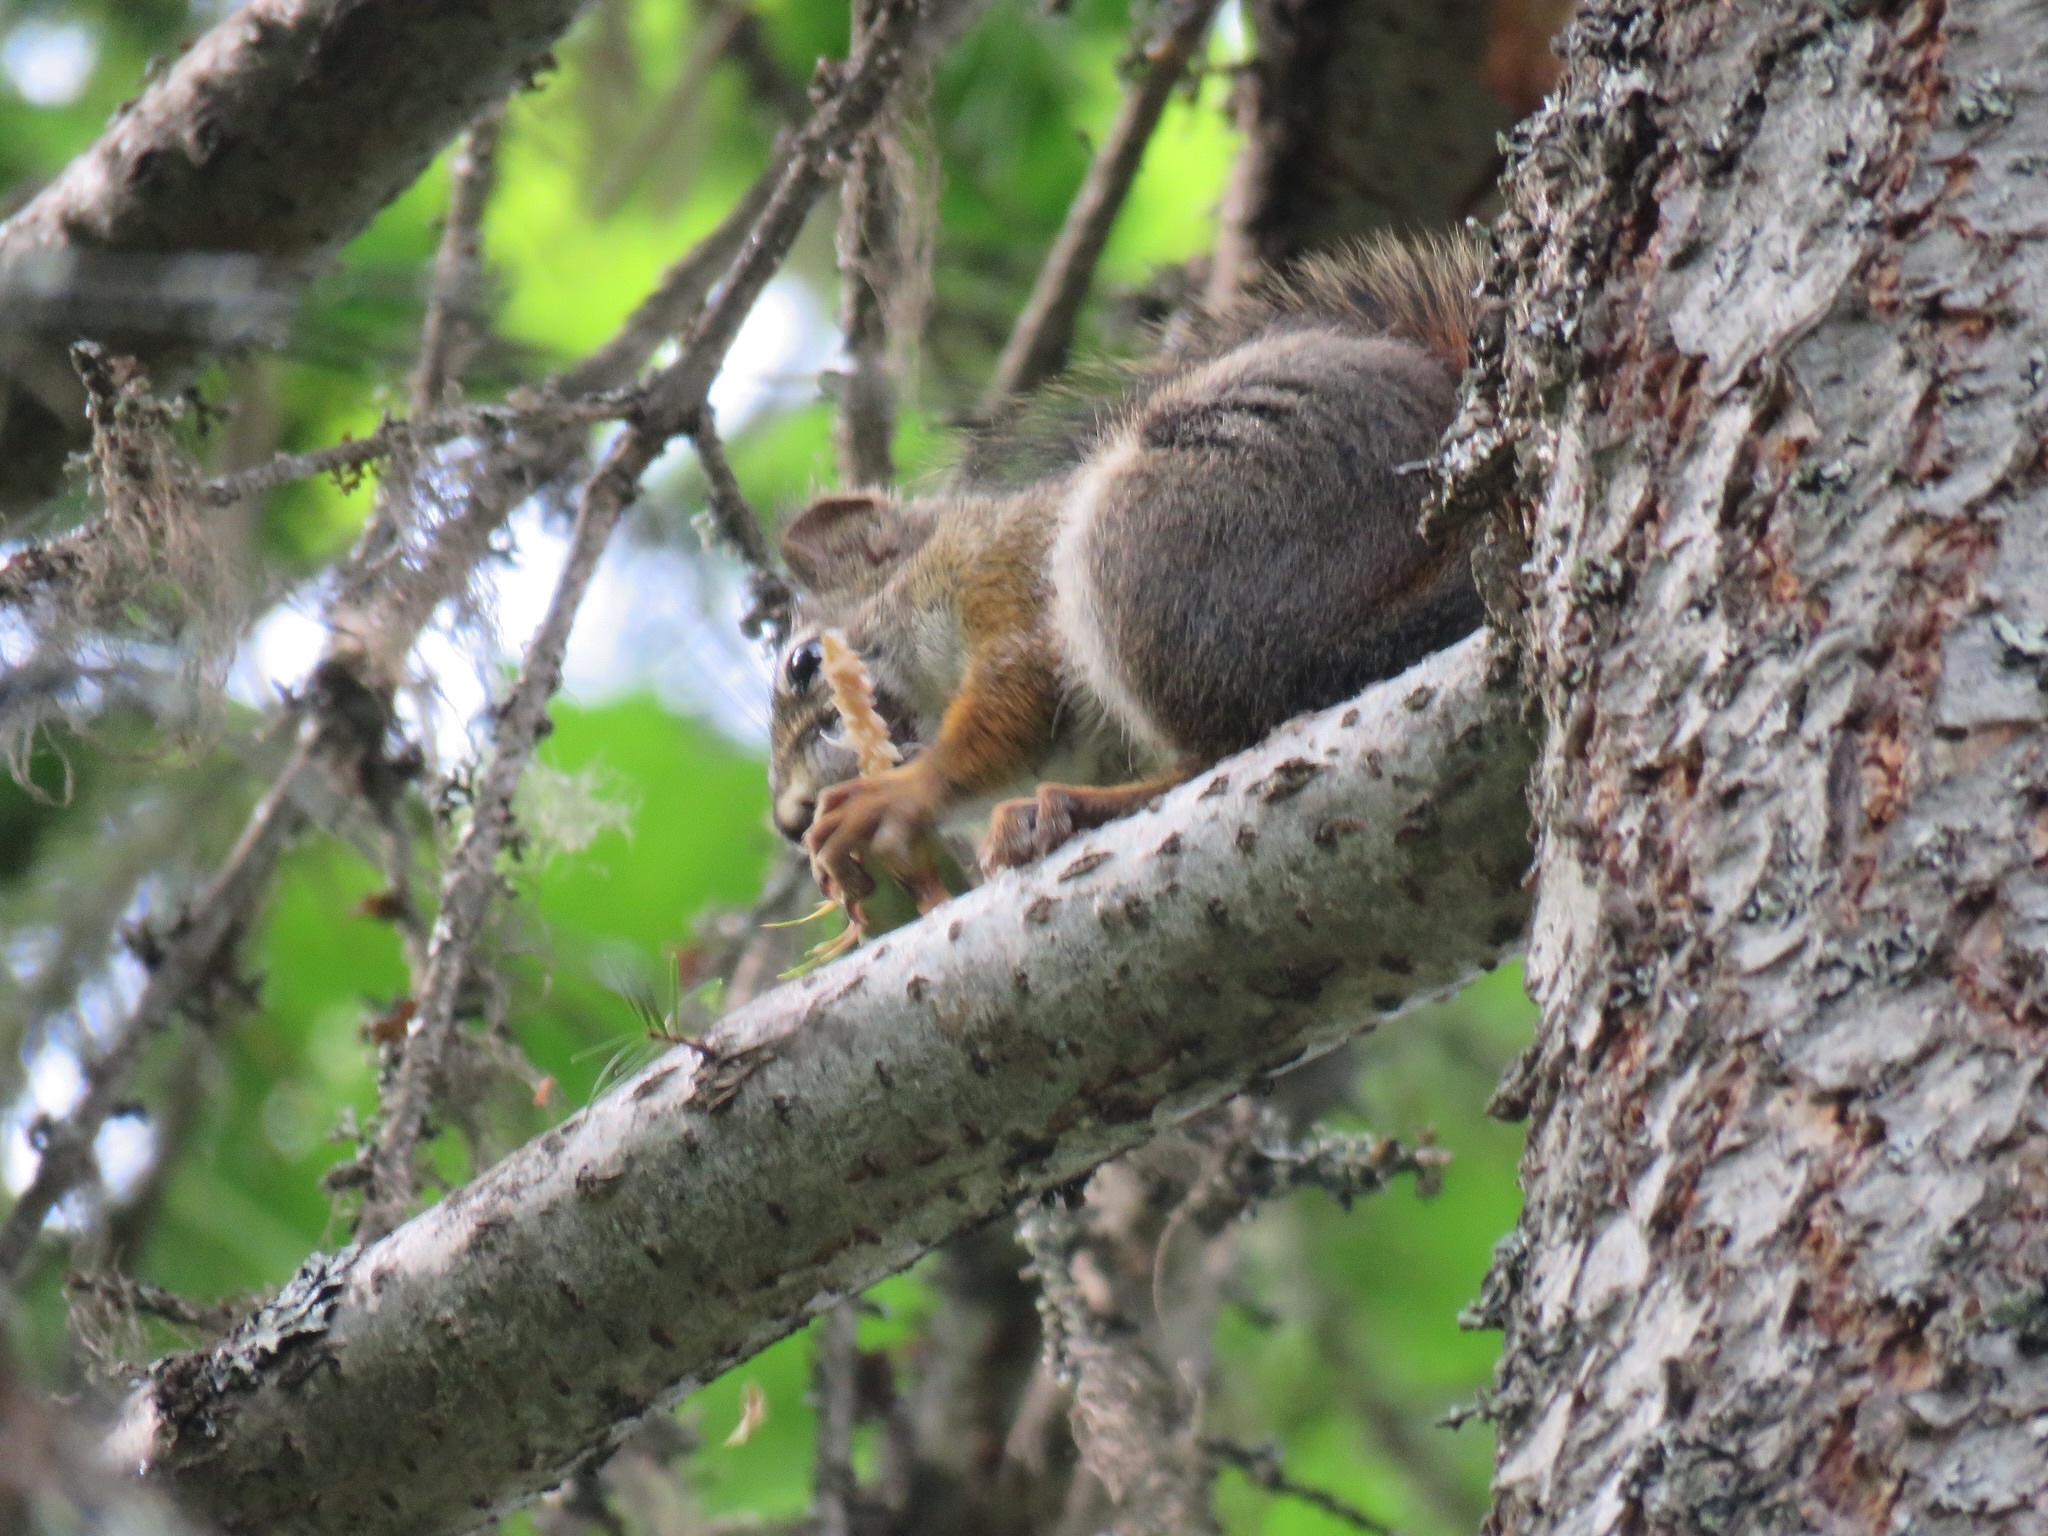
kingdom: Animalia
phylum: Chordata
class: Mammalia
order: Rodentia
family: Sciuridae
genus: Tamiasciurus
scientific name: Tamiasciurus hudsonicus
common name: Red squirrel
